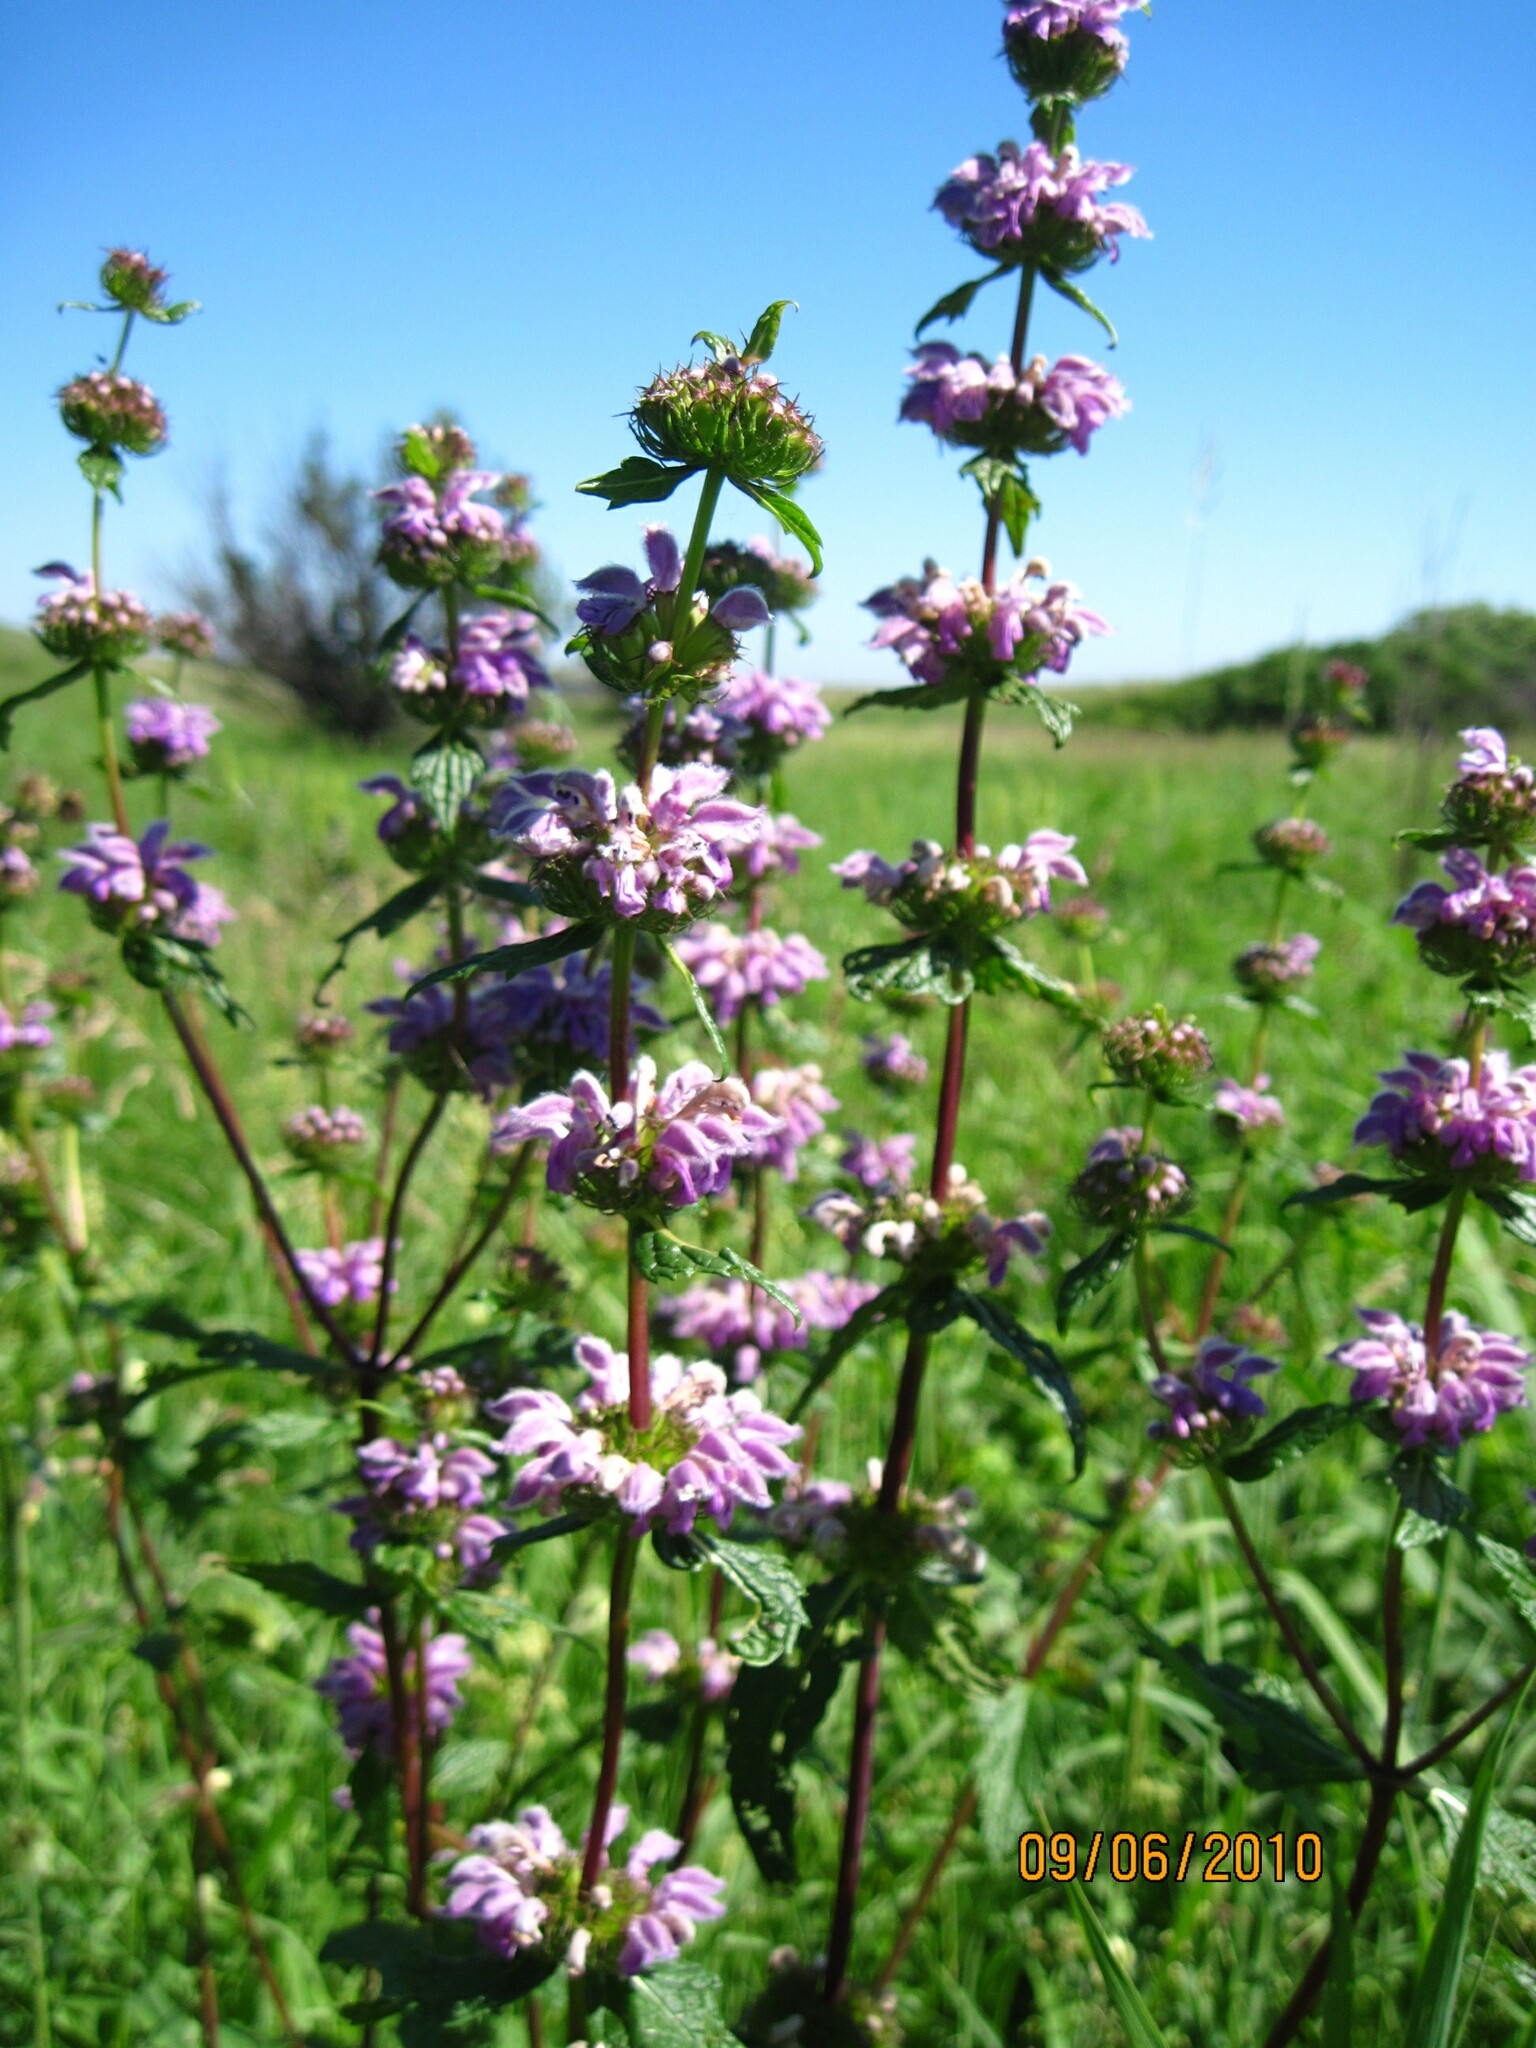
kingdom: Plantae
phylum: Tracheophyta
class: Magnoliopsida
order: Lamiales
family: Lamiaceae
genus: Phlomoides
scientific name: Phlomoides tuberosa
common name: Tuberous jerusalem sage
